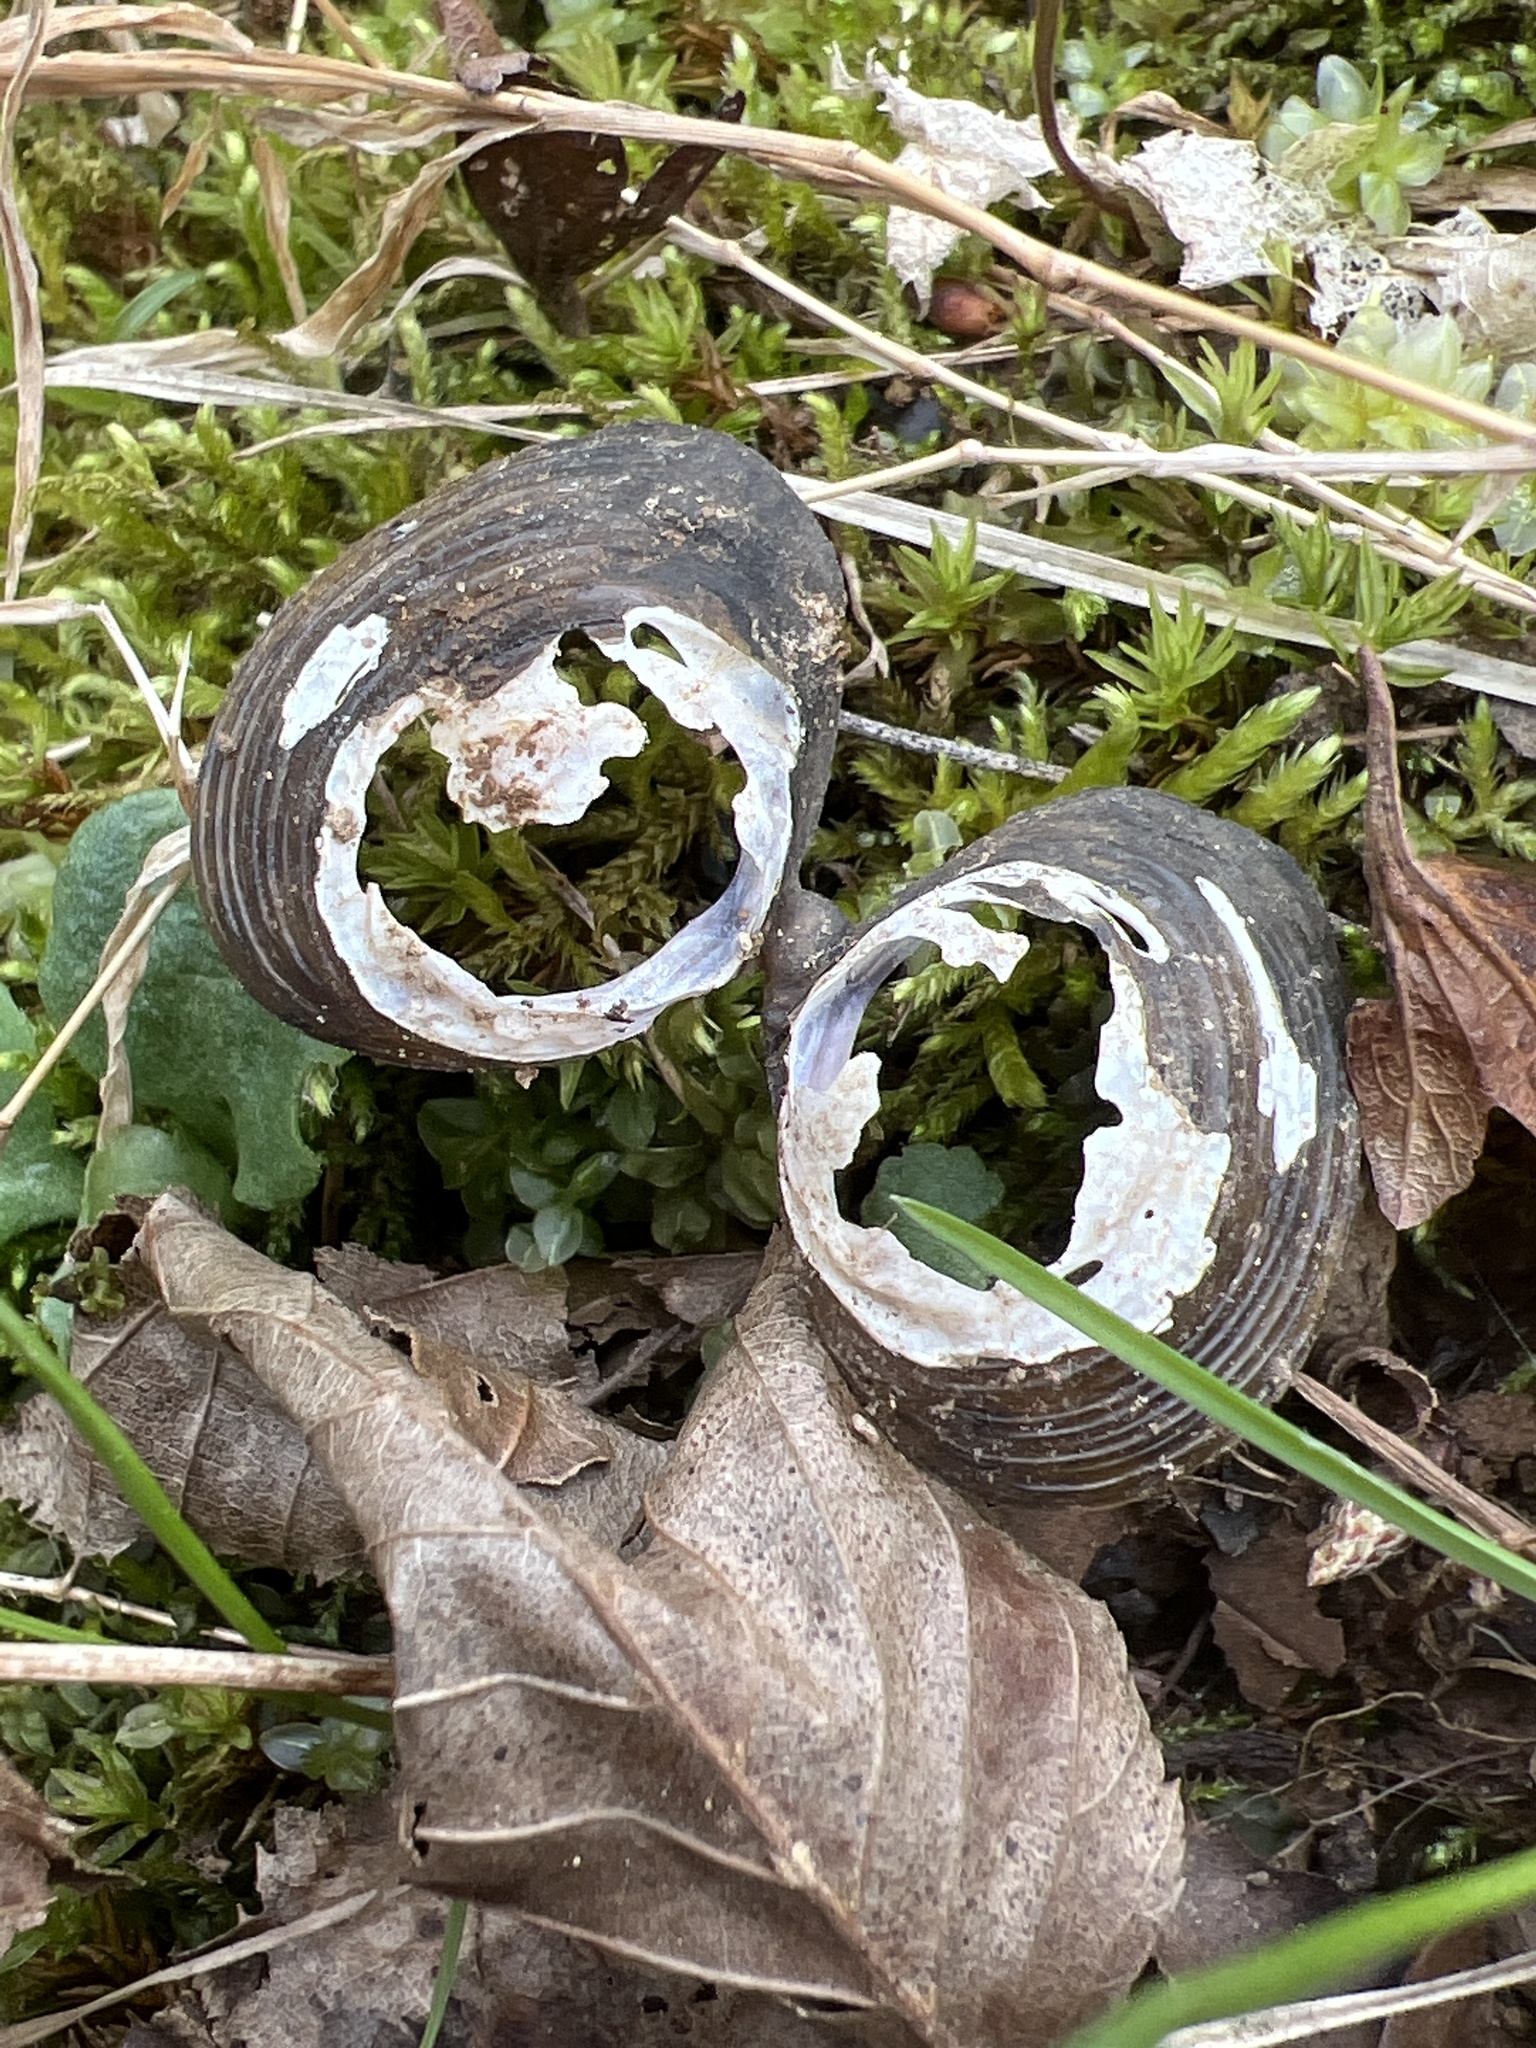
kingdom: Animalia
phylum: Mollusca
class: Bivalvia
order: Venerida
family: Cyrenidae
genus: Corbicula
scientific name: Corbicula fluminea
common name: Asian clam
